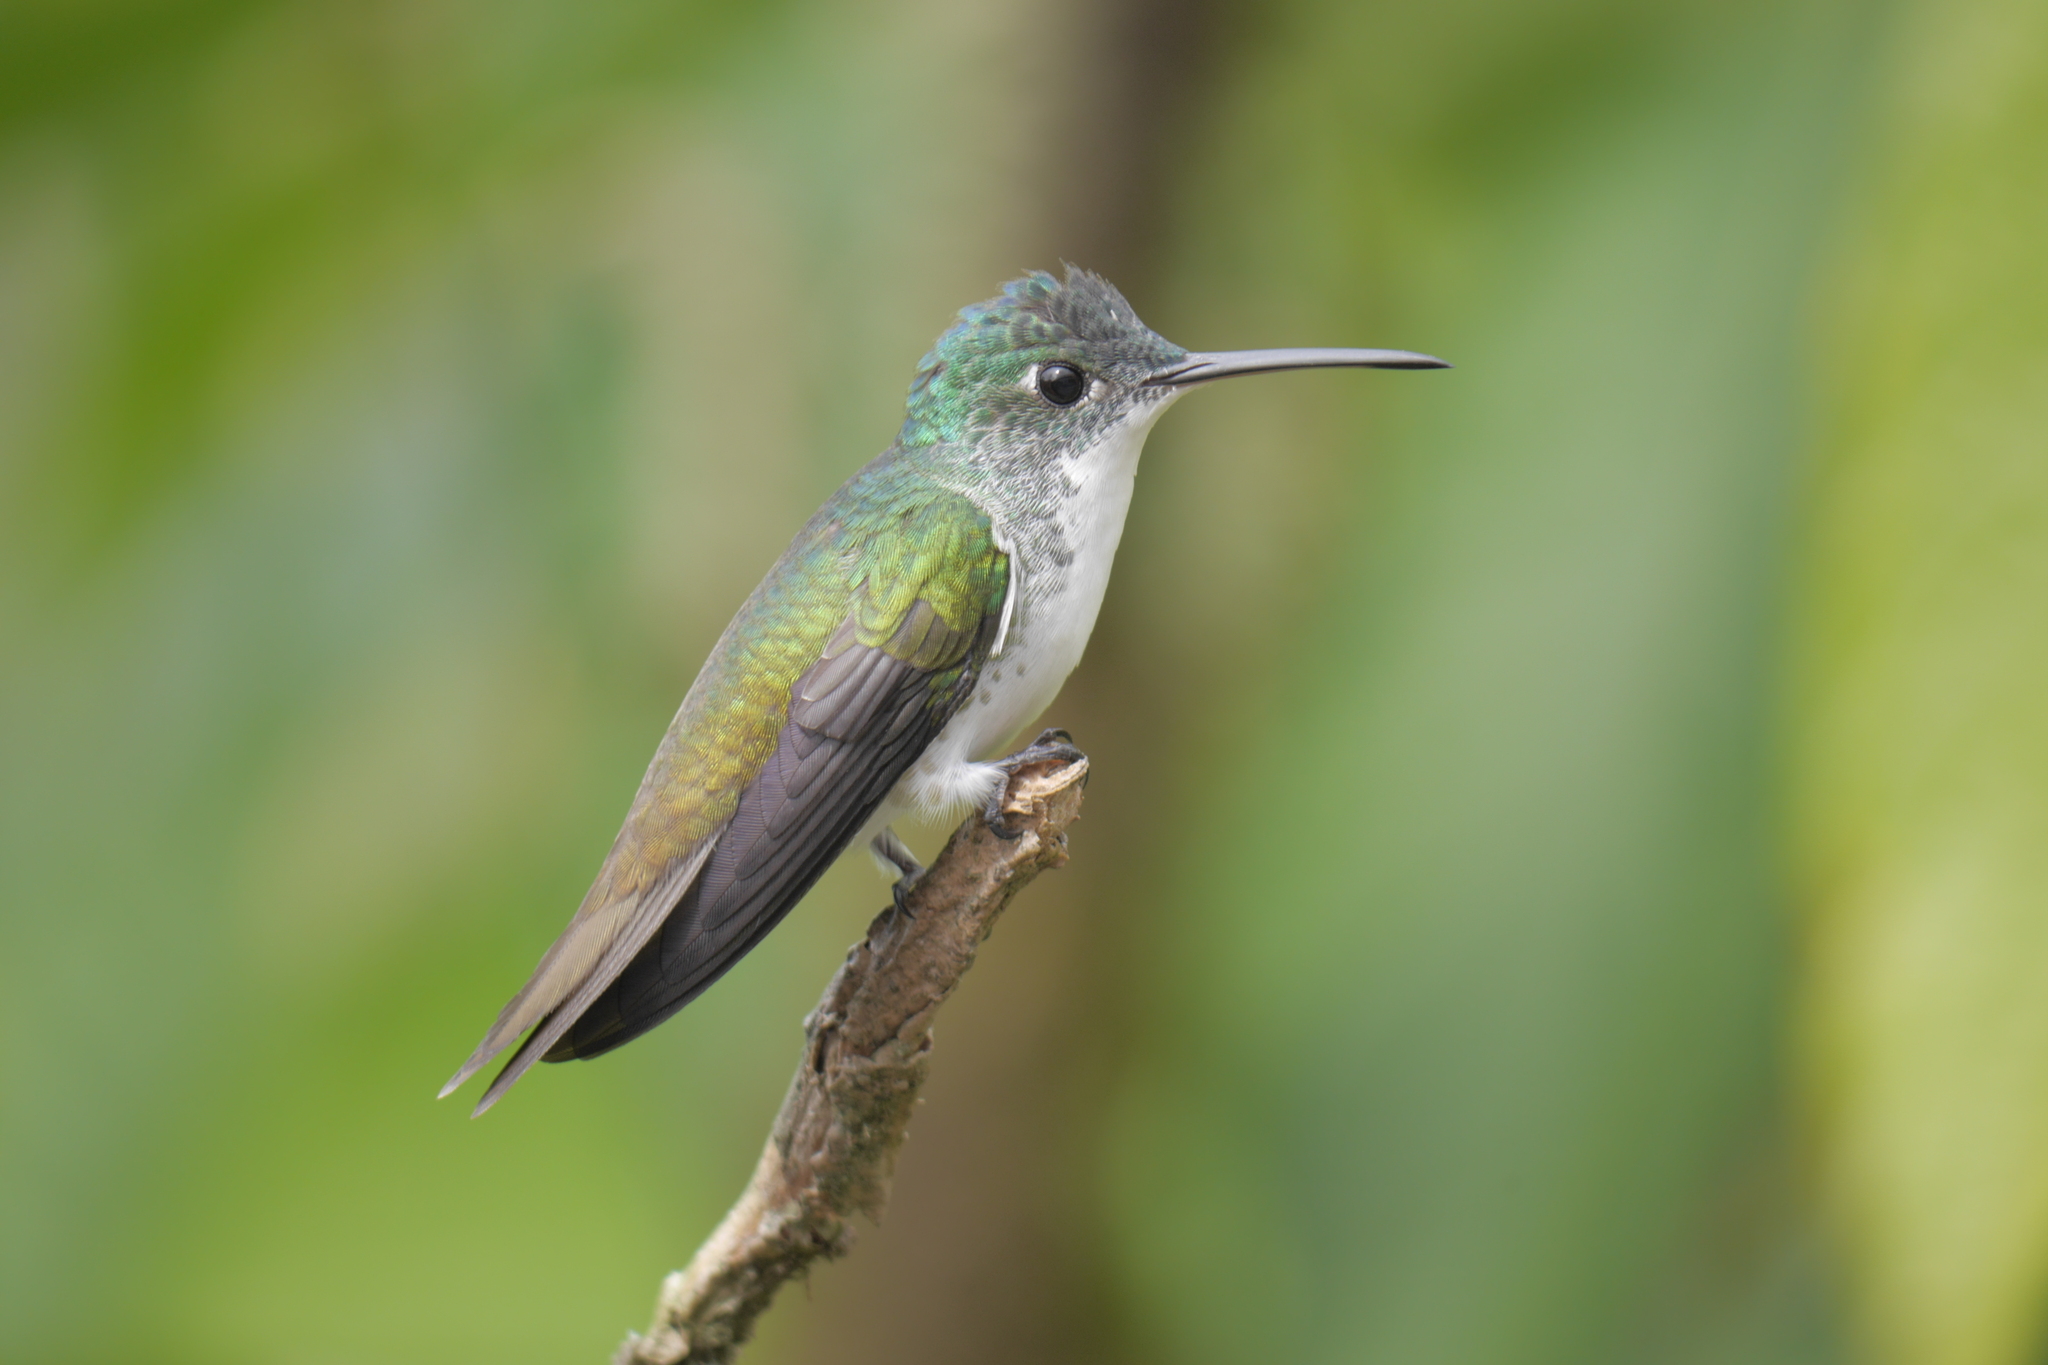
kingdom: Animalia
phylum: Chordata
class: Aves
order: Apodiformes
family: Trochilidae
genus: Uranomitra
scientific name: Uranomitra franciae
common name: Andean emerald
